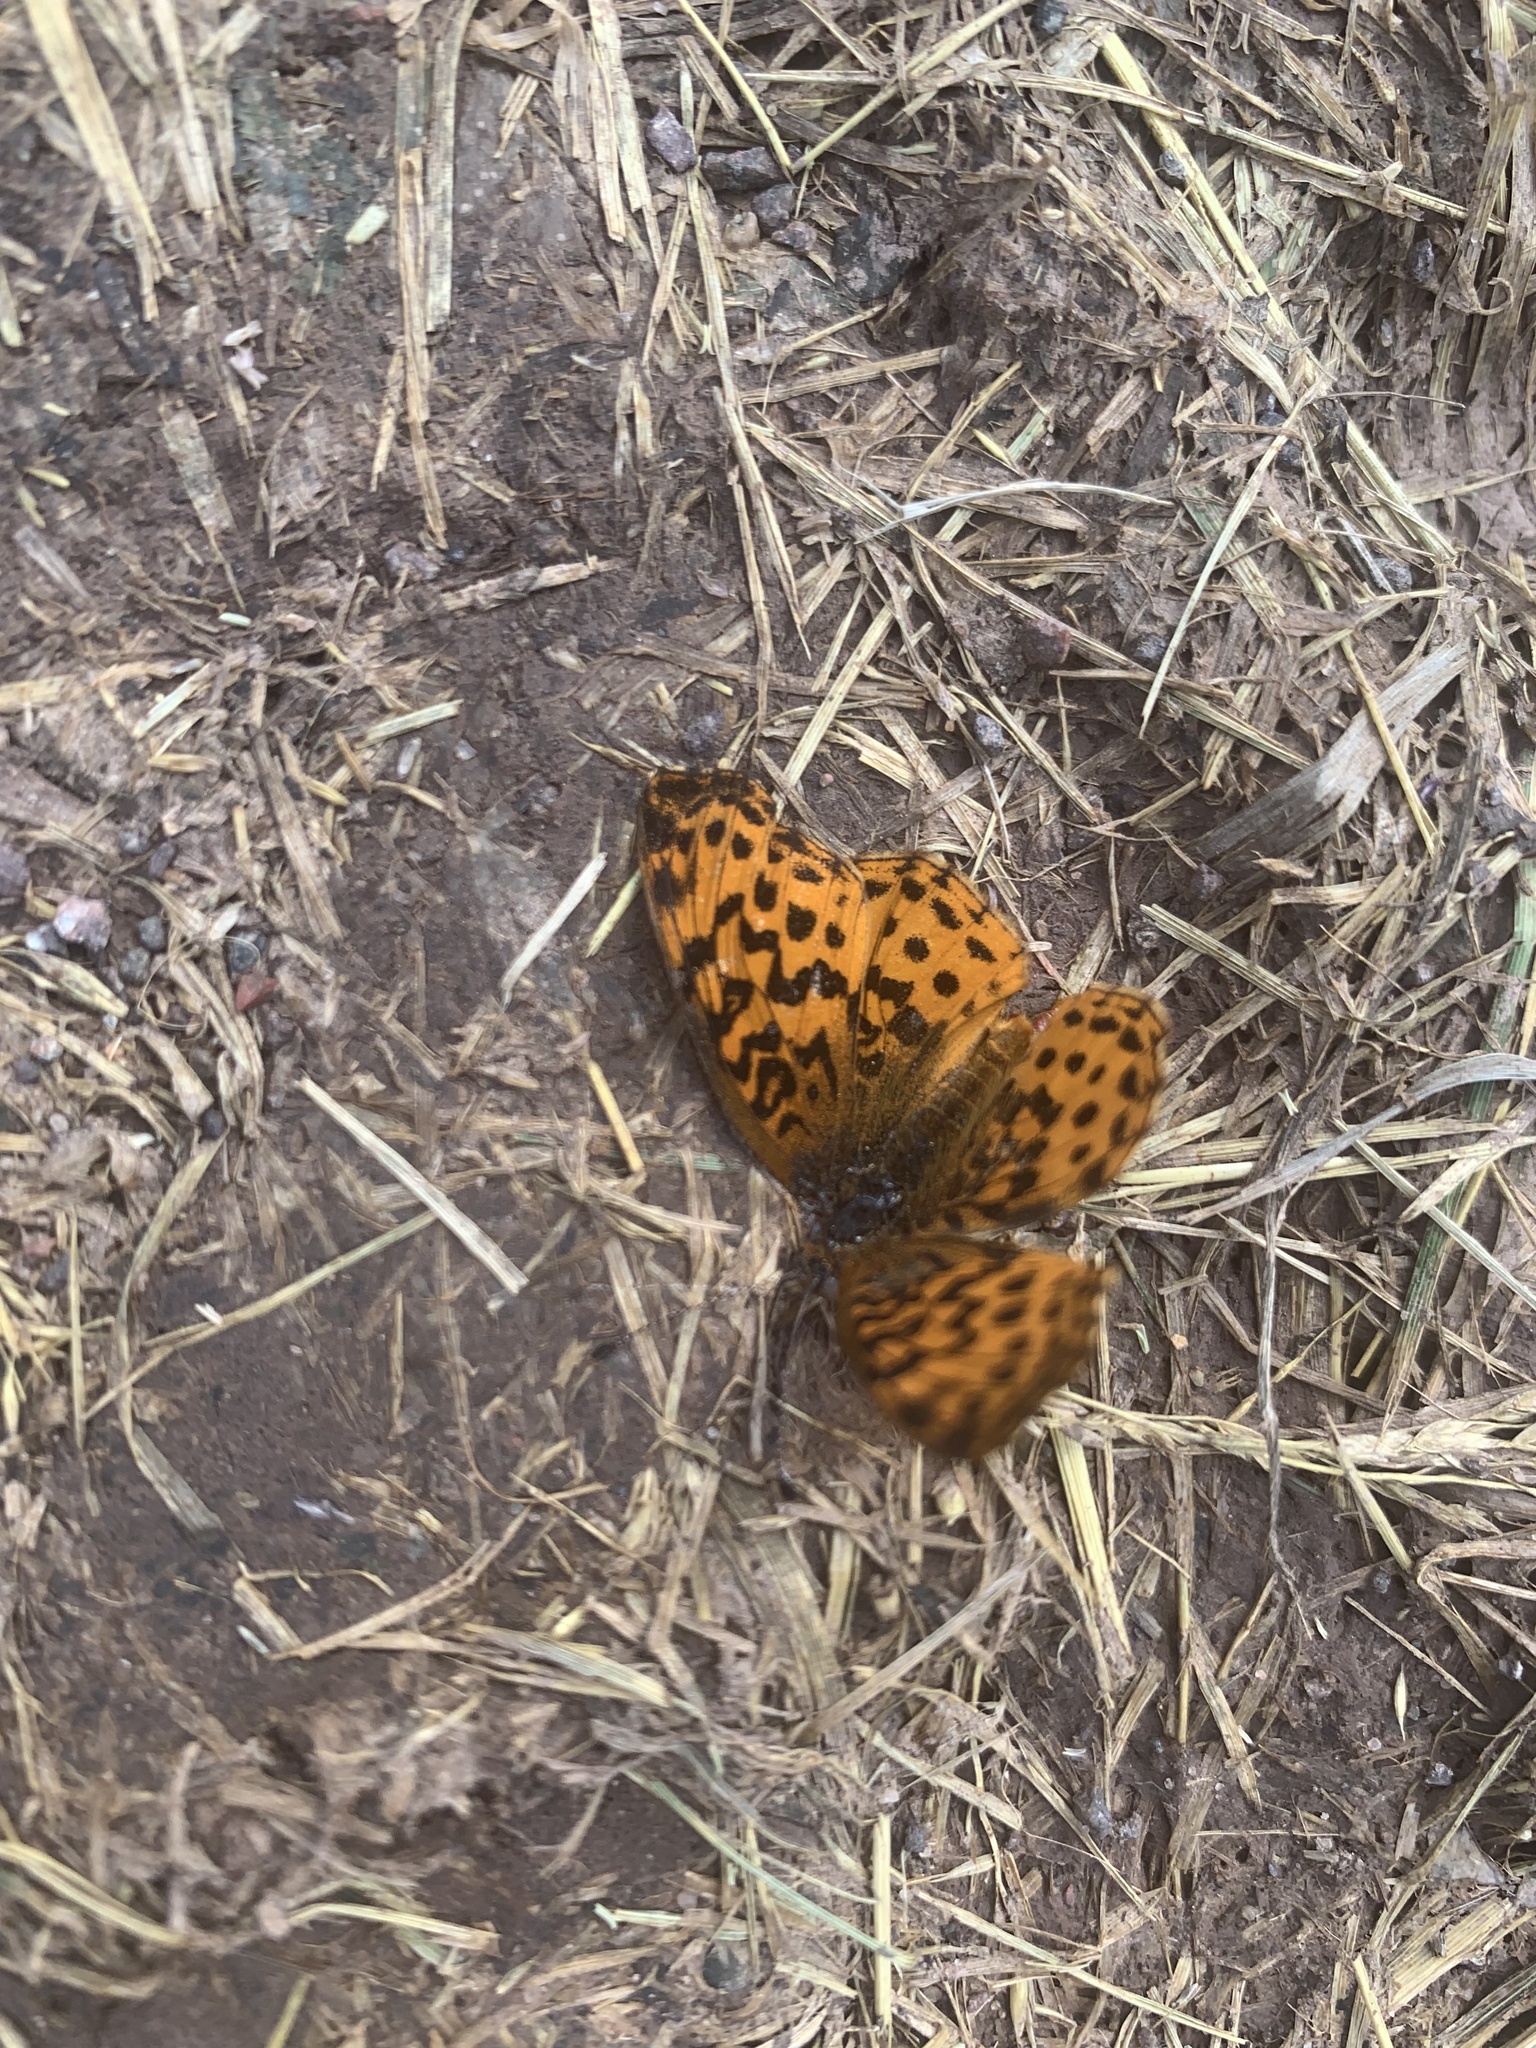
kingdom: Animalia
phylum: Arthropoda
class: Insecta
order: Lepidoptera
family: Nymphalidae
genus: Clossiana
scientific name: Clossiana toddi
